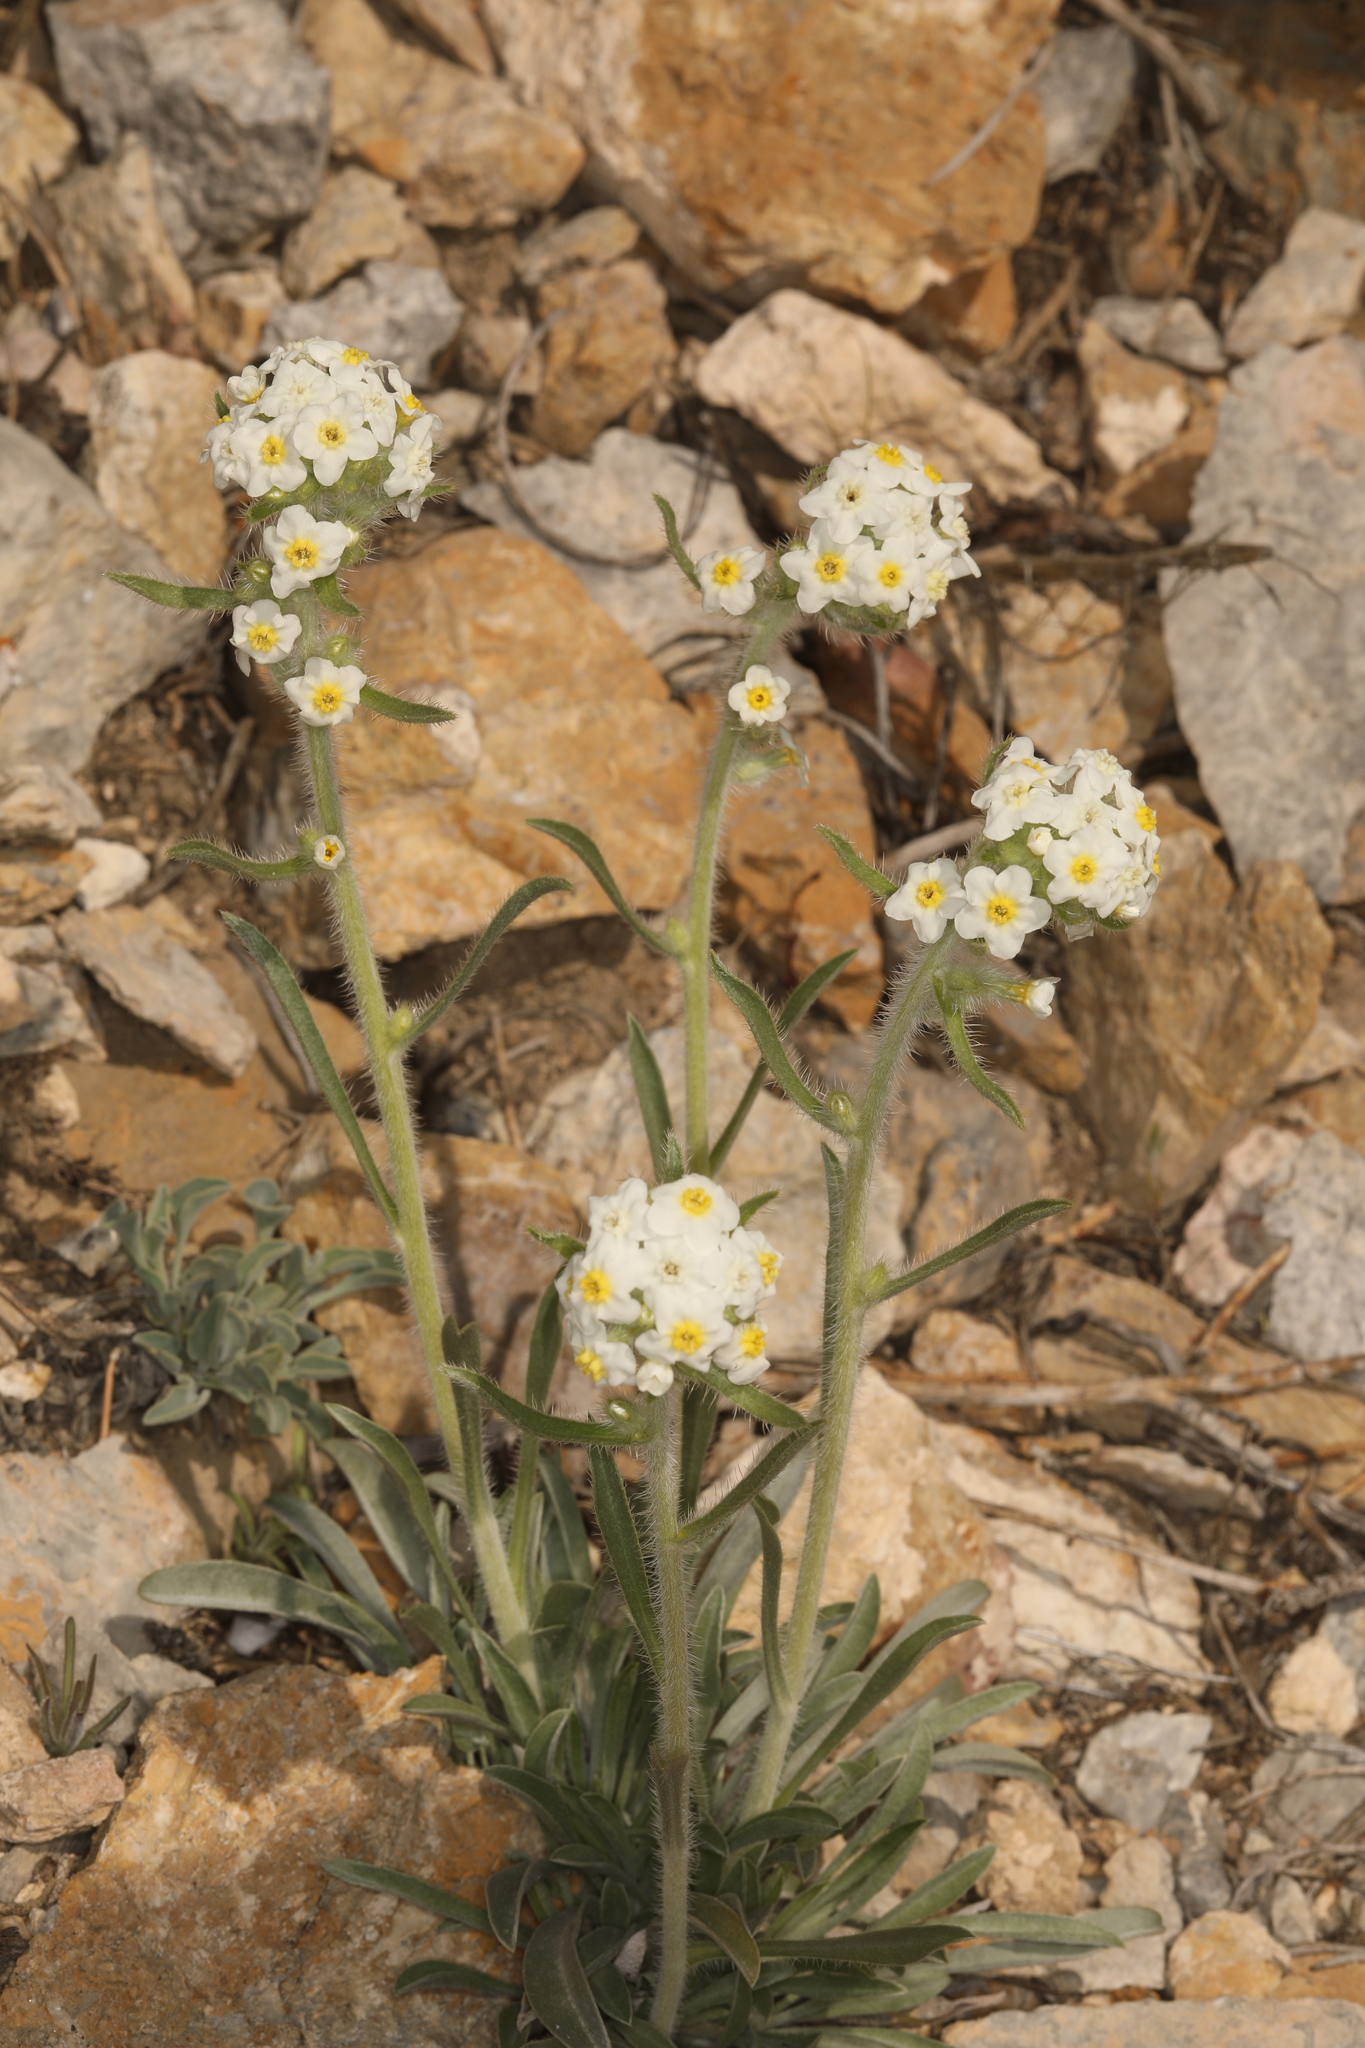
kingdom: Plantae
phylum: Tracheophyta
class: Magnoliopsida
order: Boraginales
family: Boraginaceae
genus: Oreocarya
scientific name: Oreocarya flavoculata
